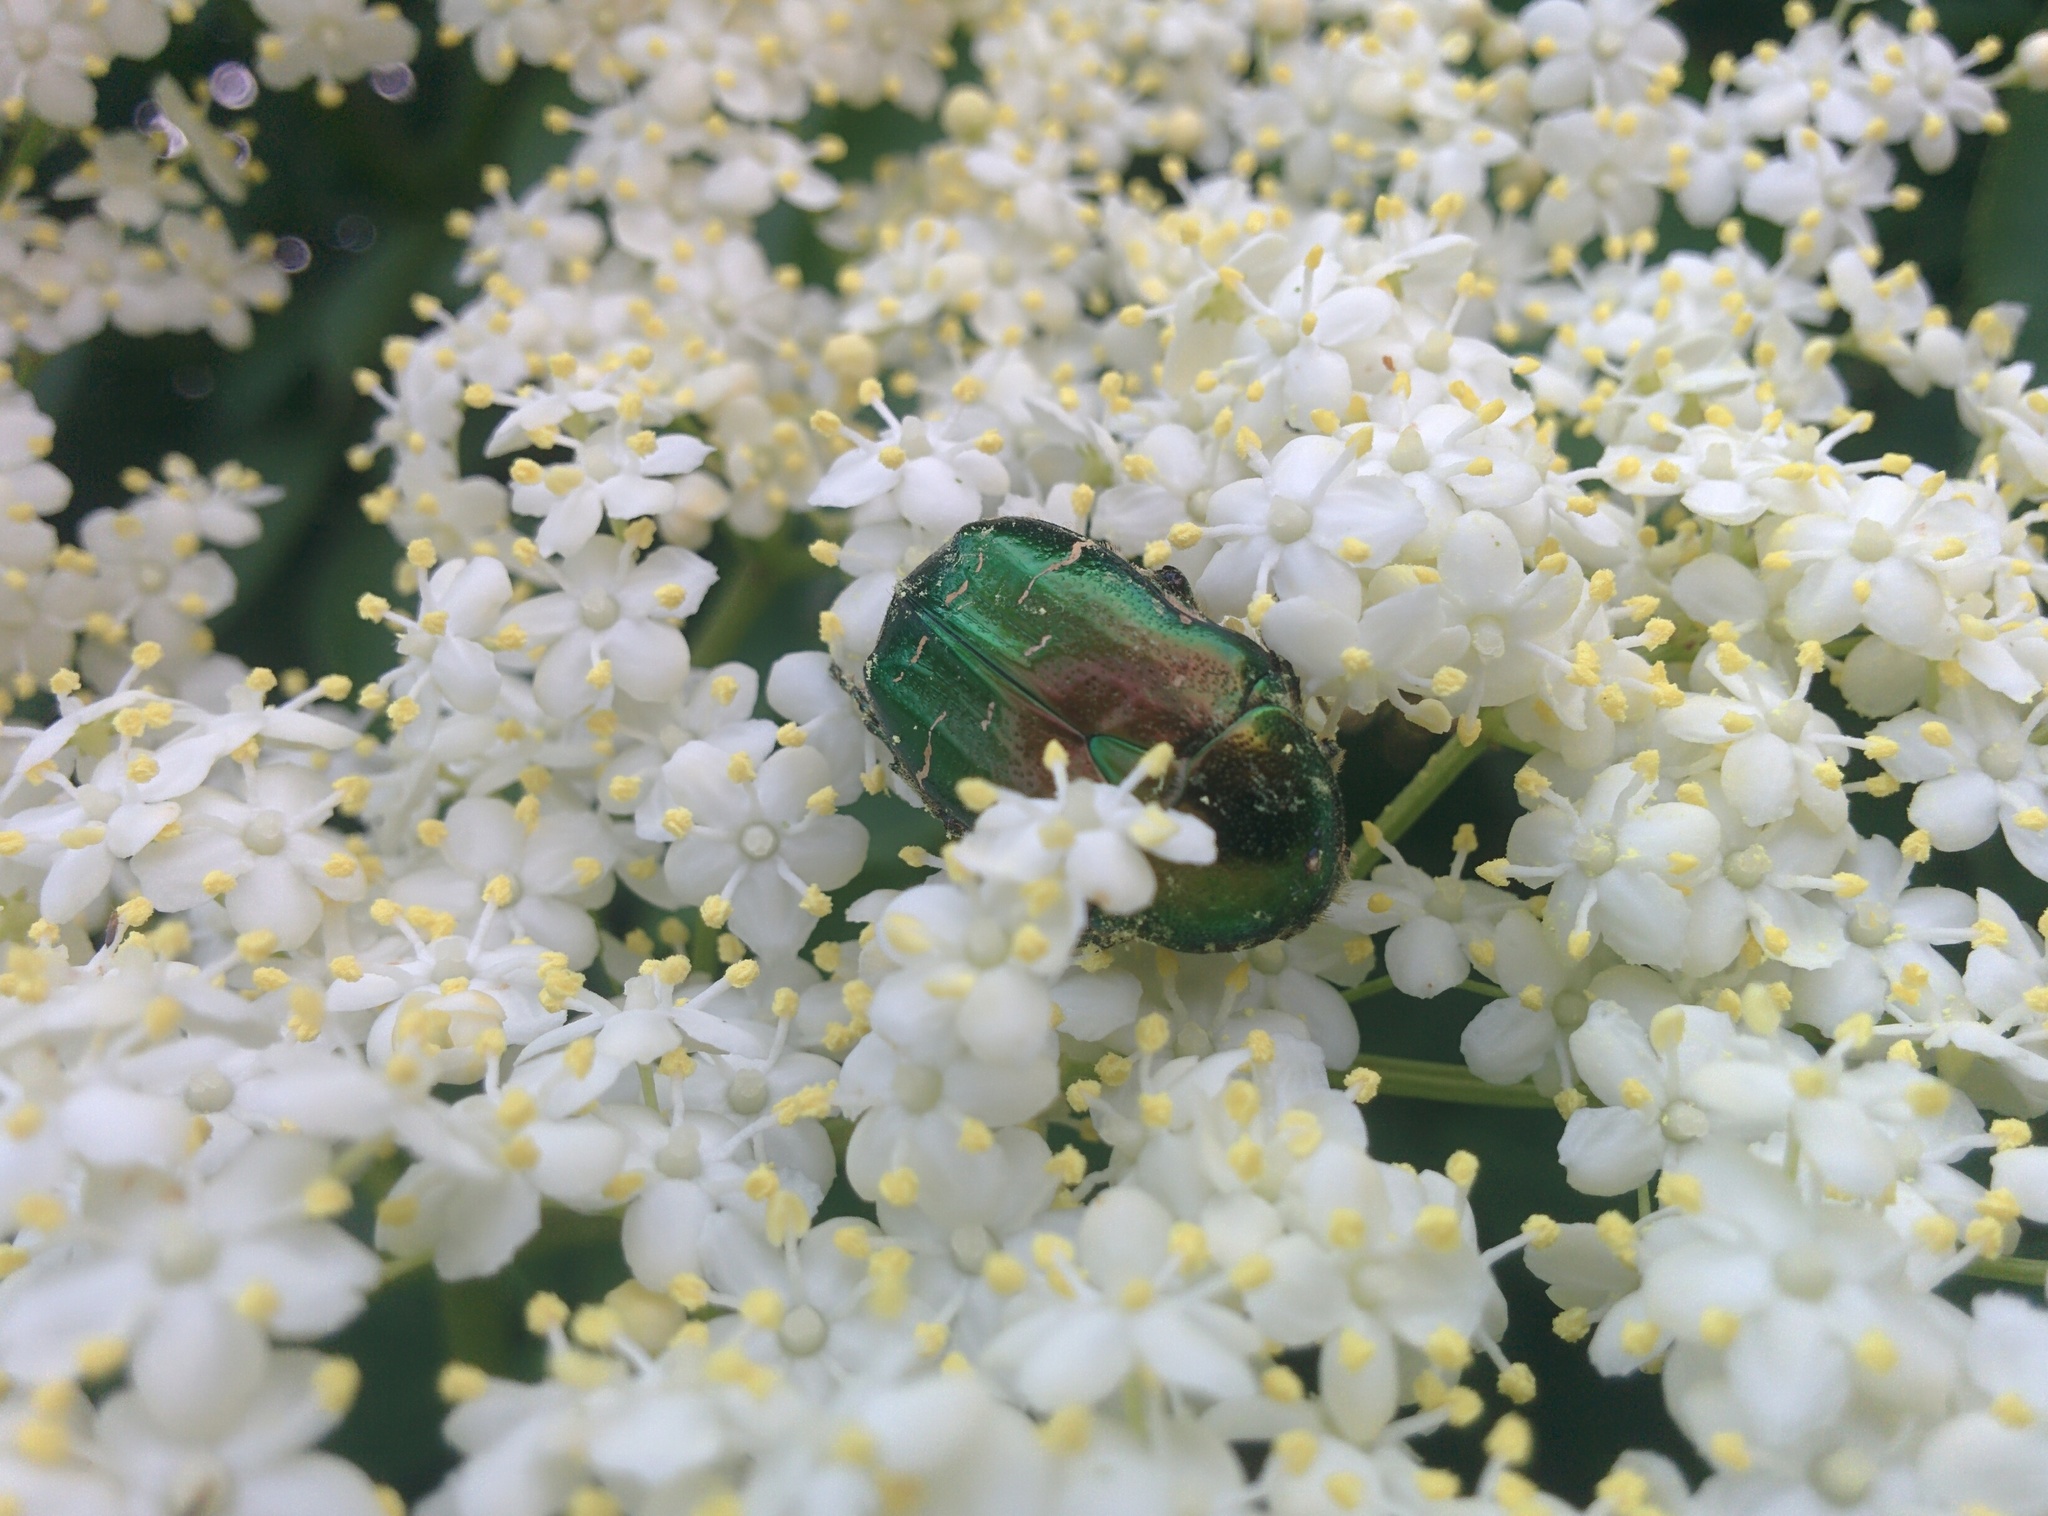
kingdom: Animalia
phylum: Arthropoda
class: Insecta
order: Coleoptera
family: Scarabaeidae
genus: Cetonia
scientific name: Cetonia aurata
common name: Rose chafer
